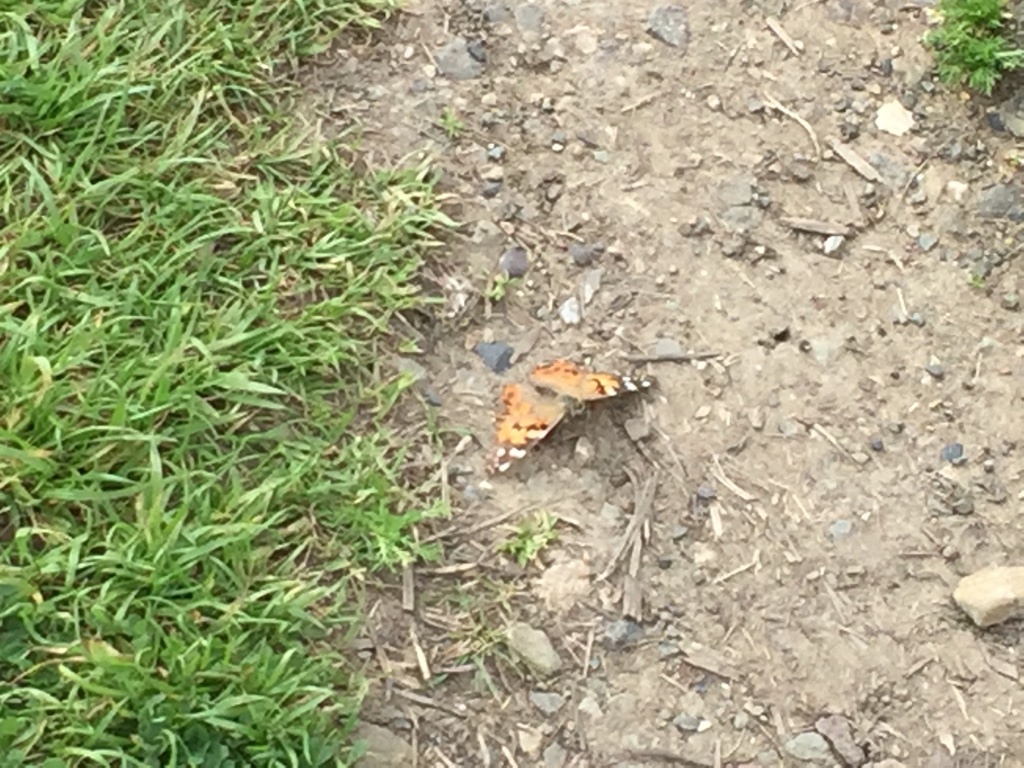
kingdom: Animalia
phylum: Arthropoda
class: Insecta
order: Lepidoptera
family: Nymphalidae
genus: Vanessa
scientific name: Vanessa cardui
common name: Painted lady
